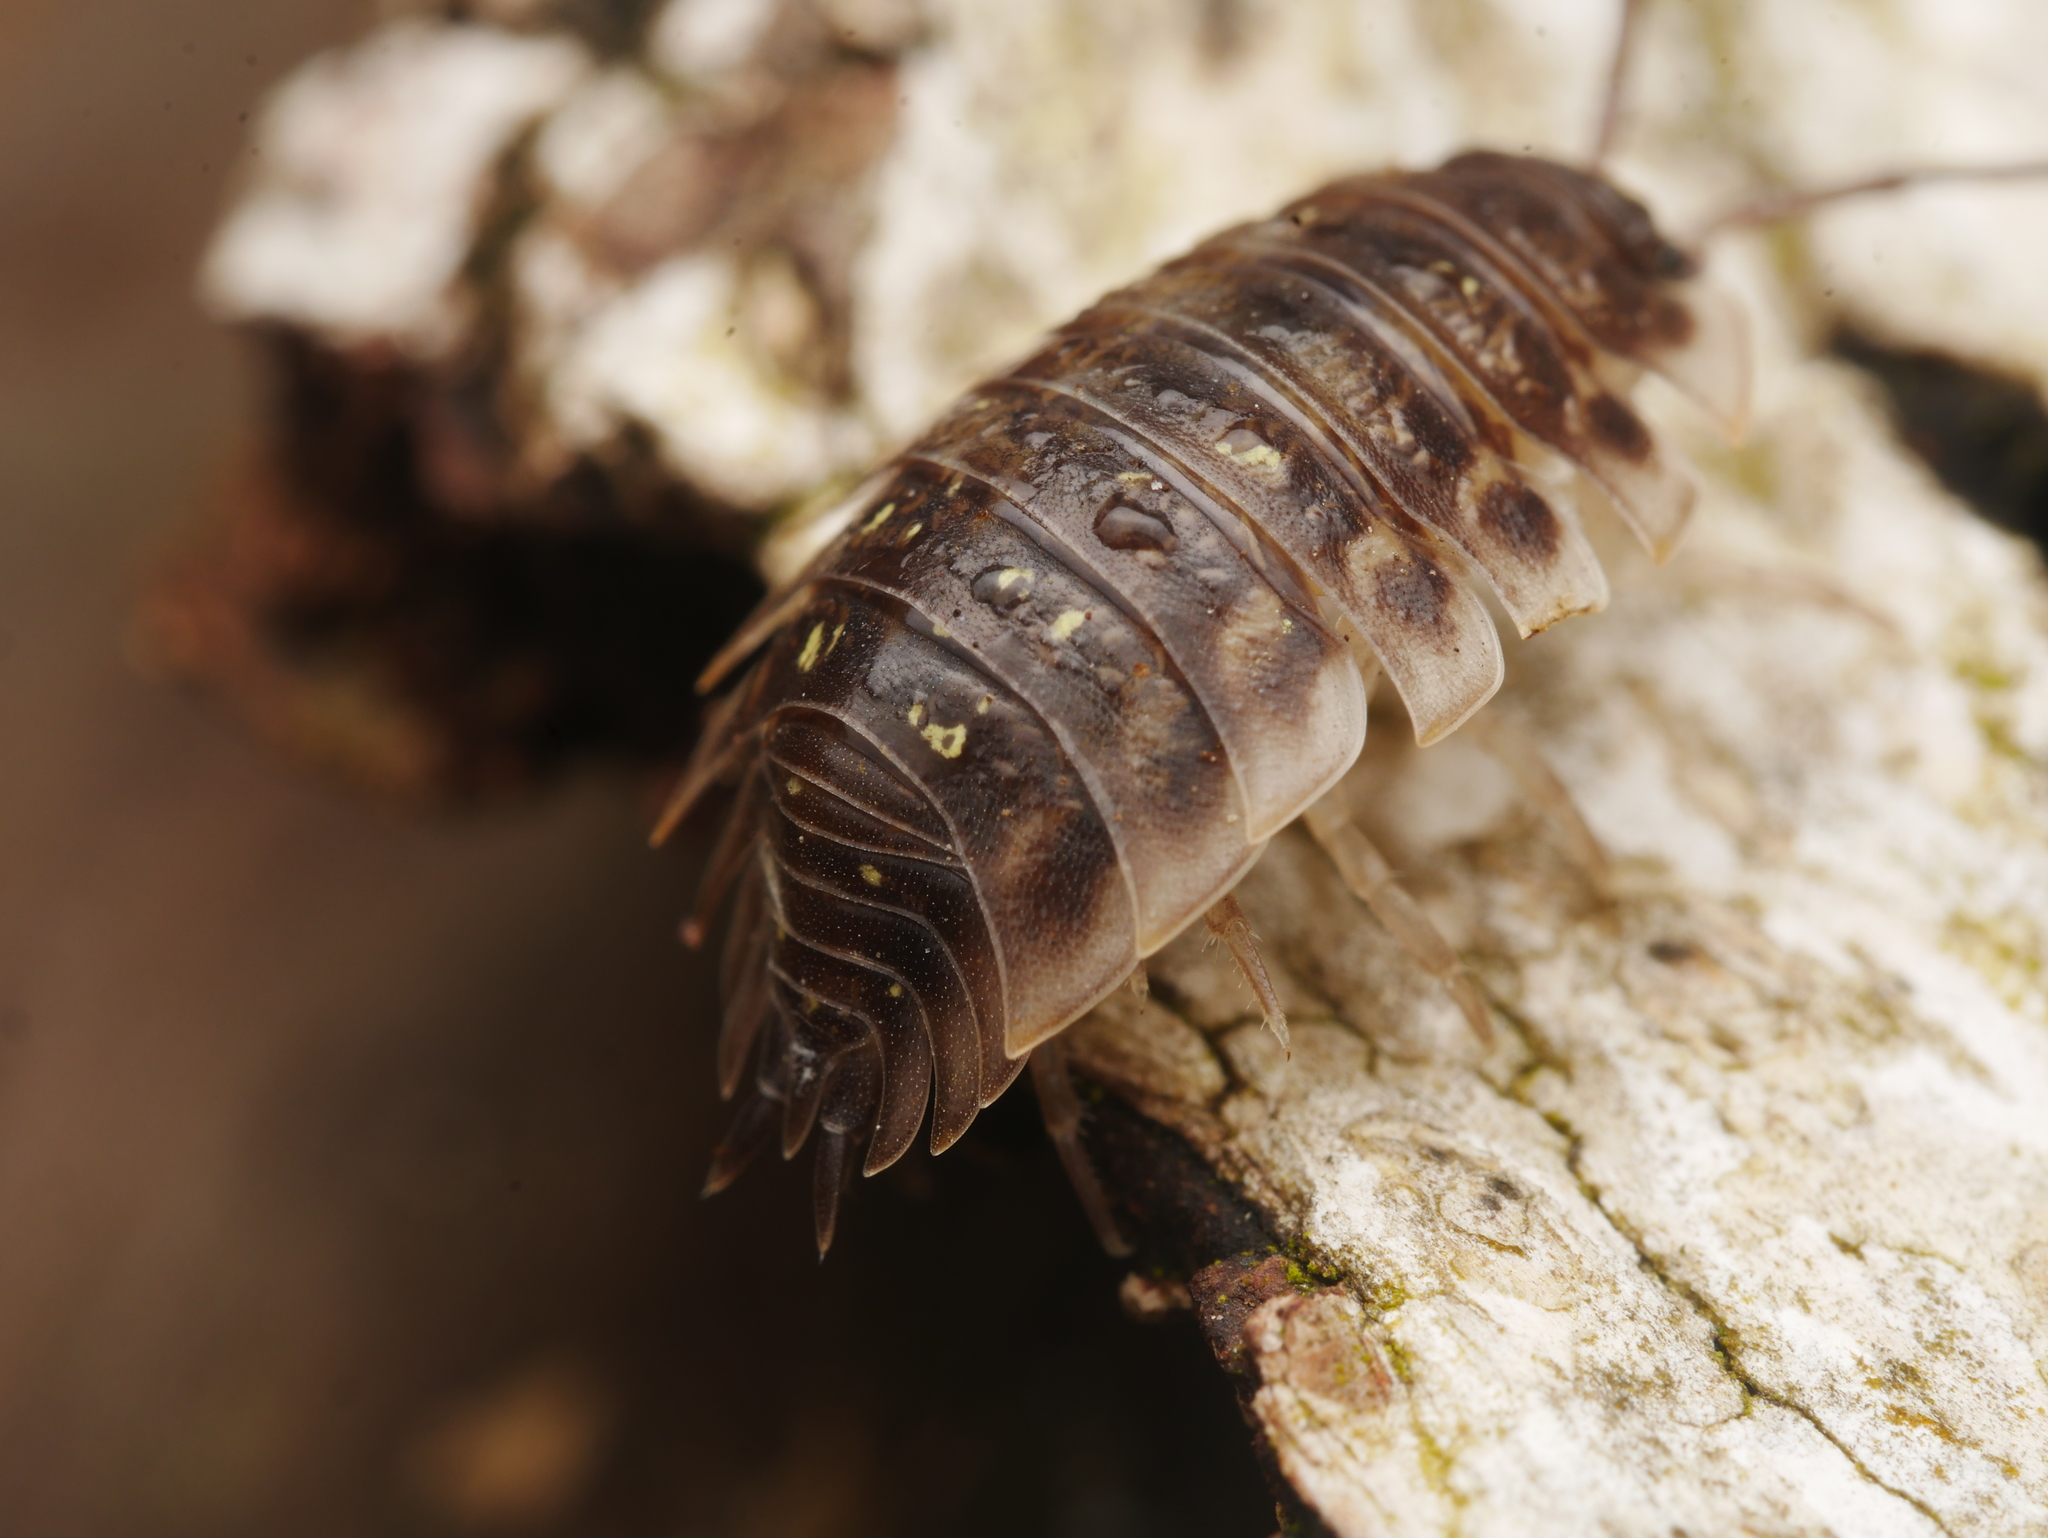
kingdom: Animalia
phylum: Arthropoda
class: Malacostraca
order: Isopoda
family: Oniscidae
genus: Oniscus
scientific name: Oniscus asellus
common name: Common shiny woodlouse
